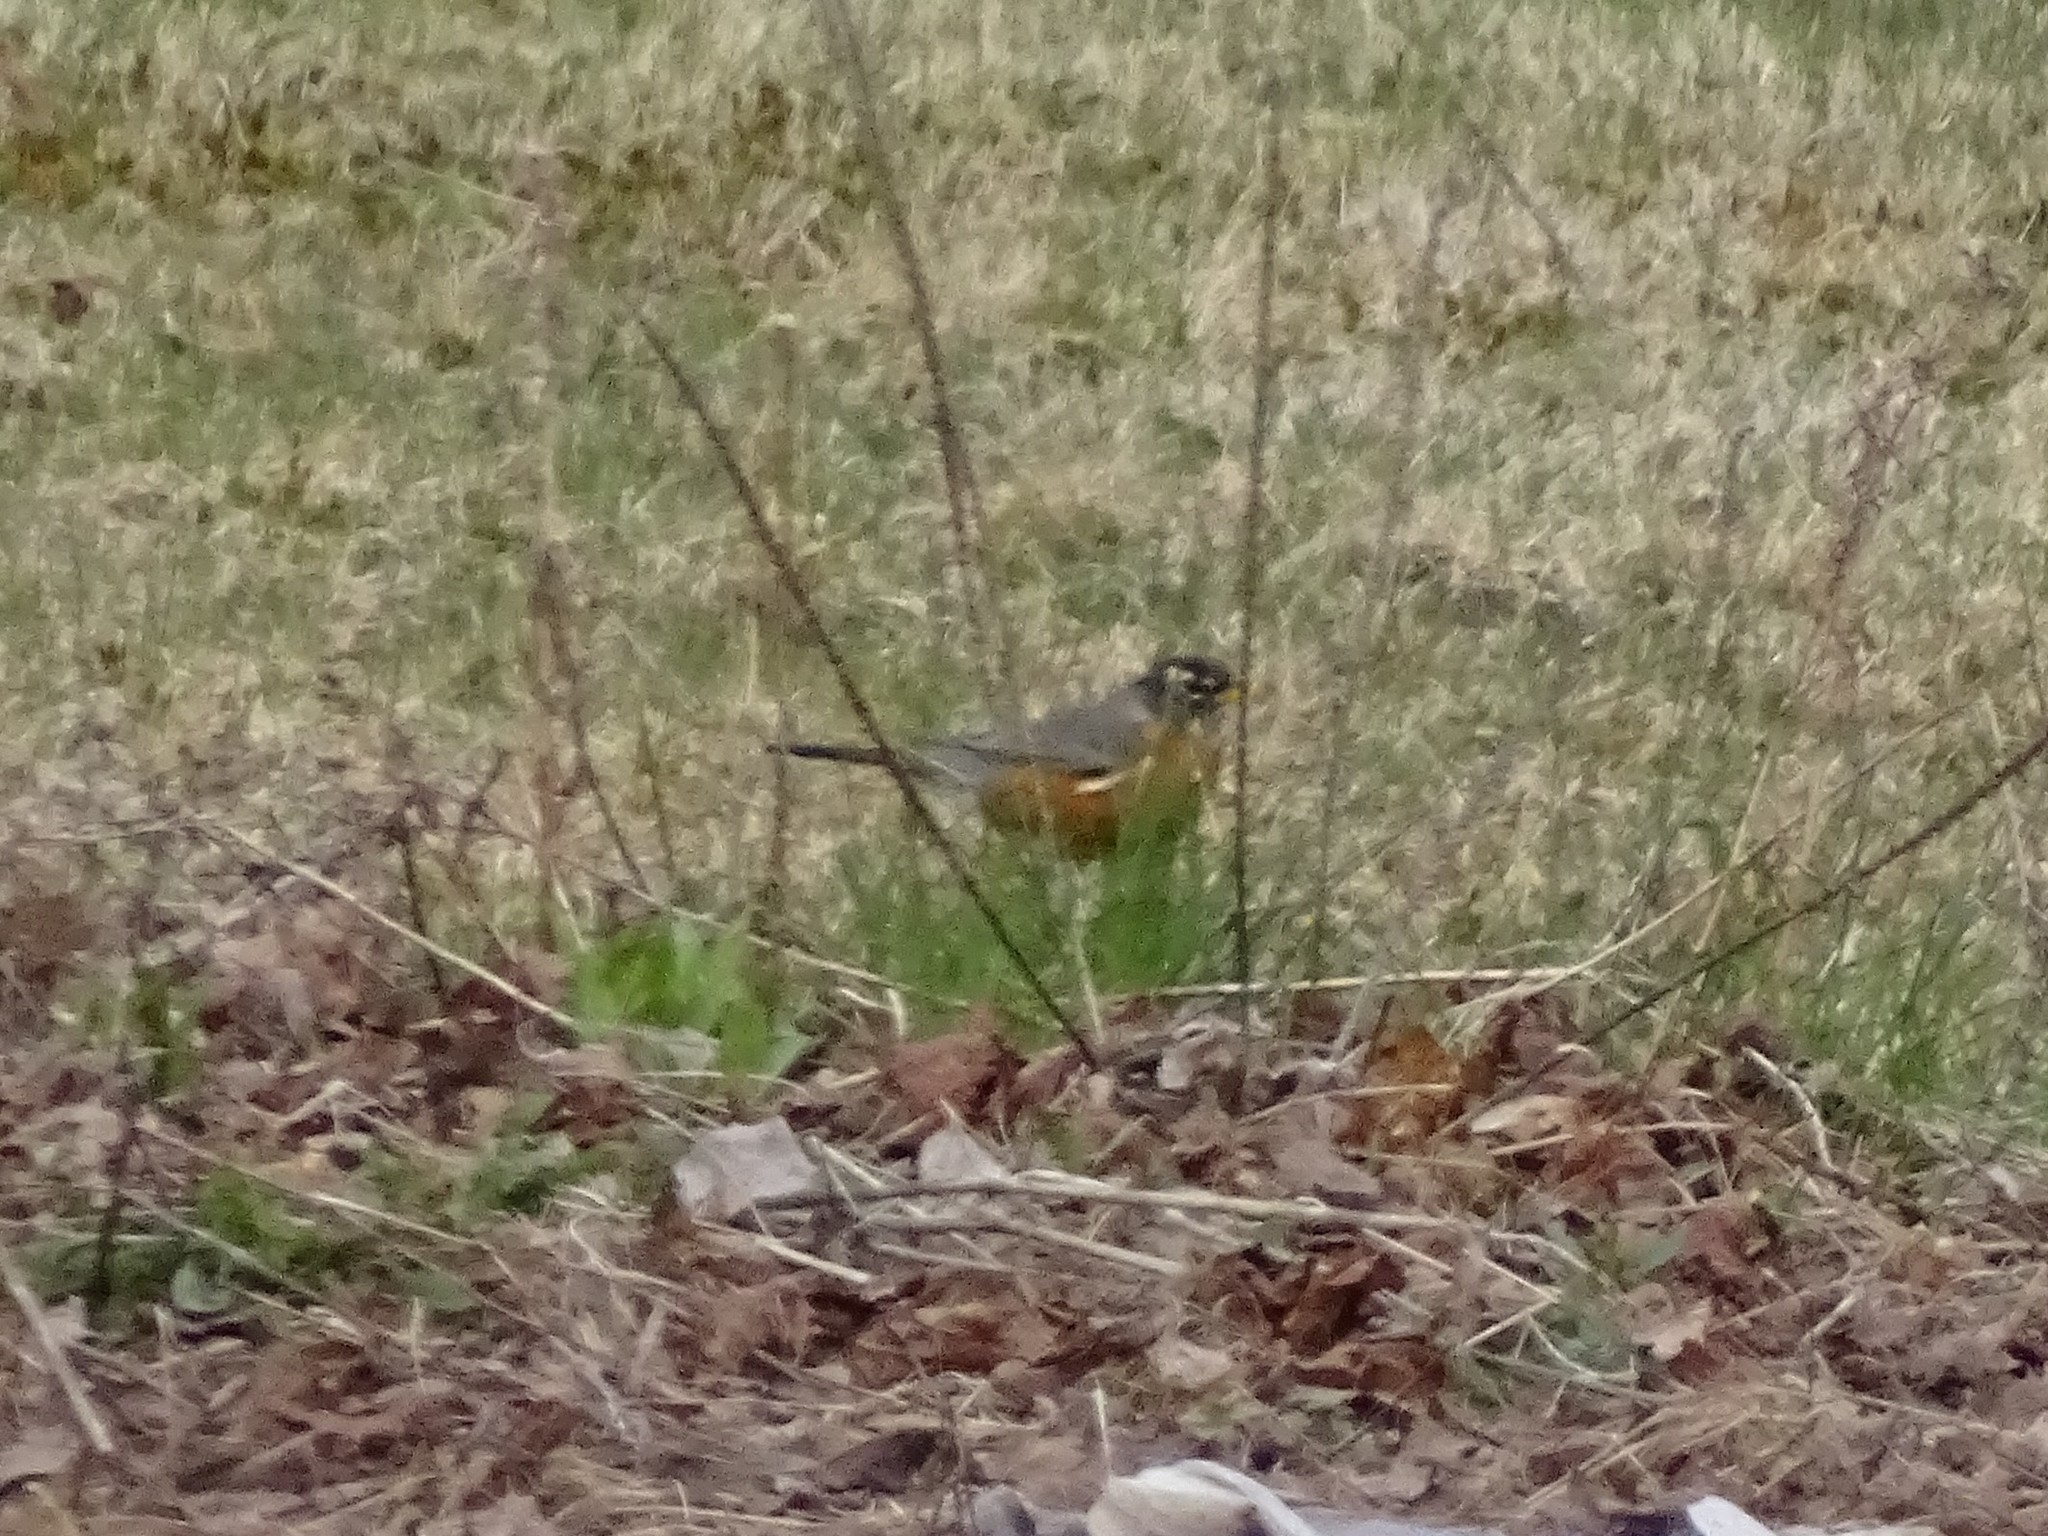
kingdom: Animalia
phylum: Chordata
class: Aves
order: Passeriformes
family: Turdidae
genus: Turdus
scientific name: Turdus migratorius
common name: American robin
